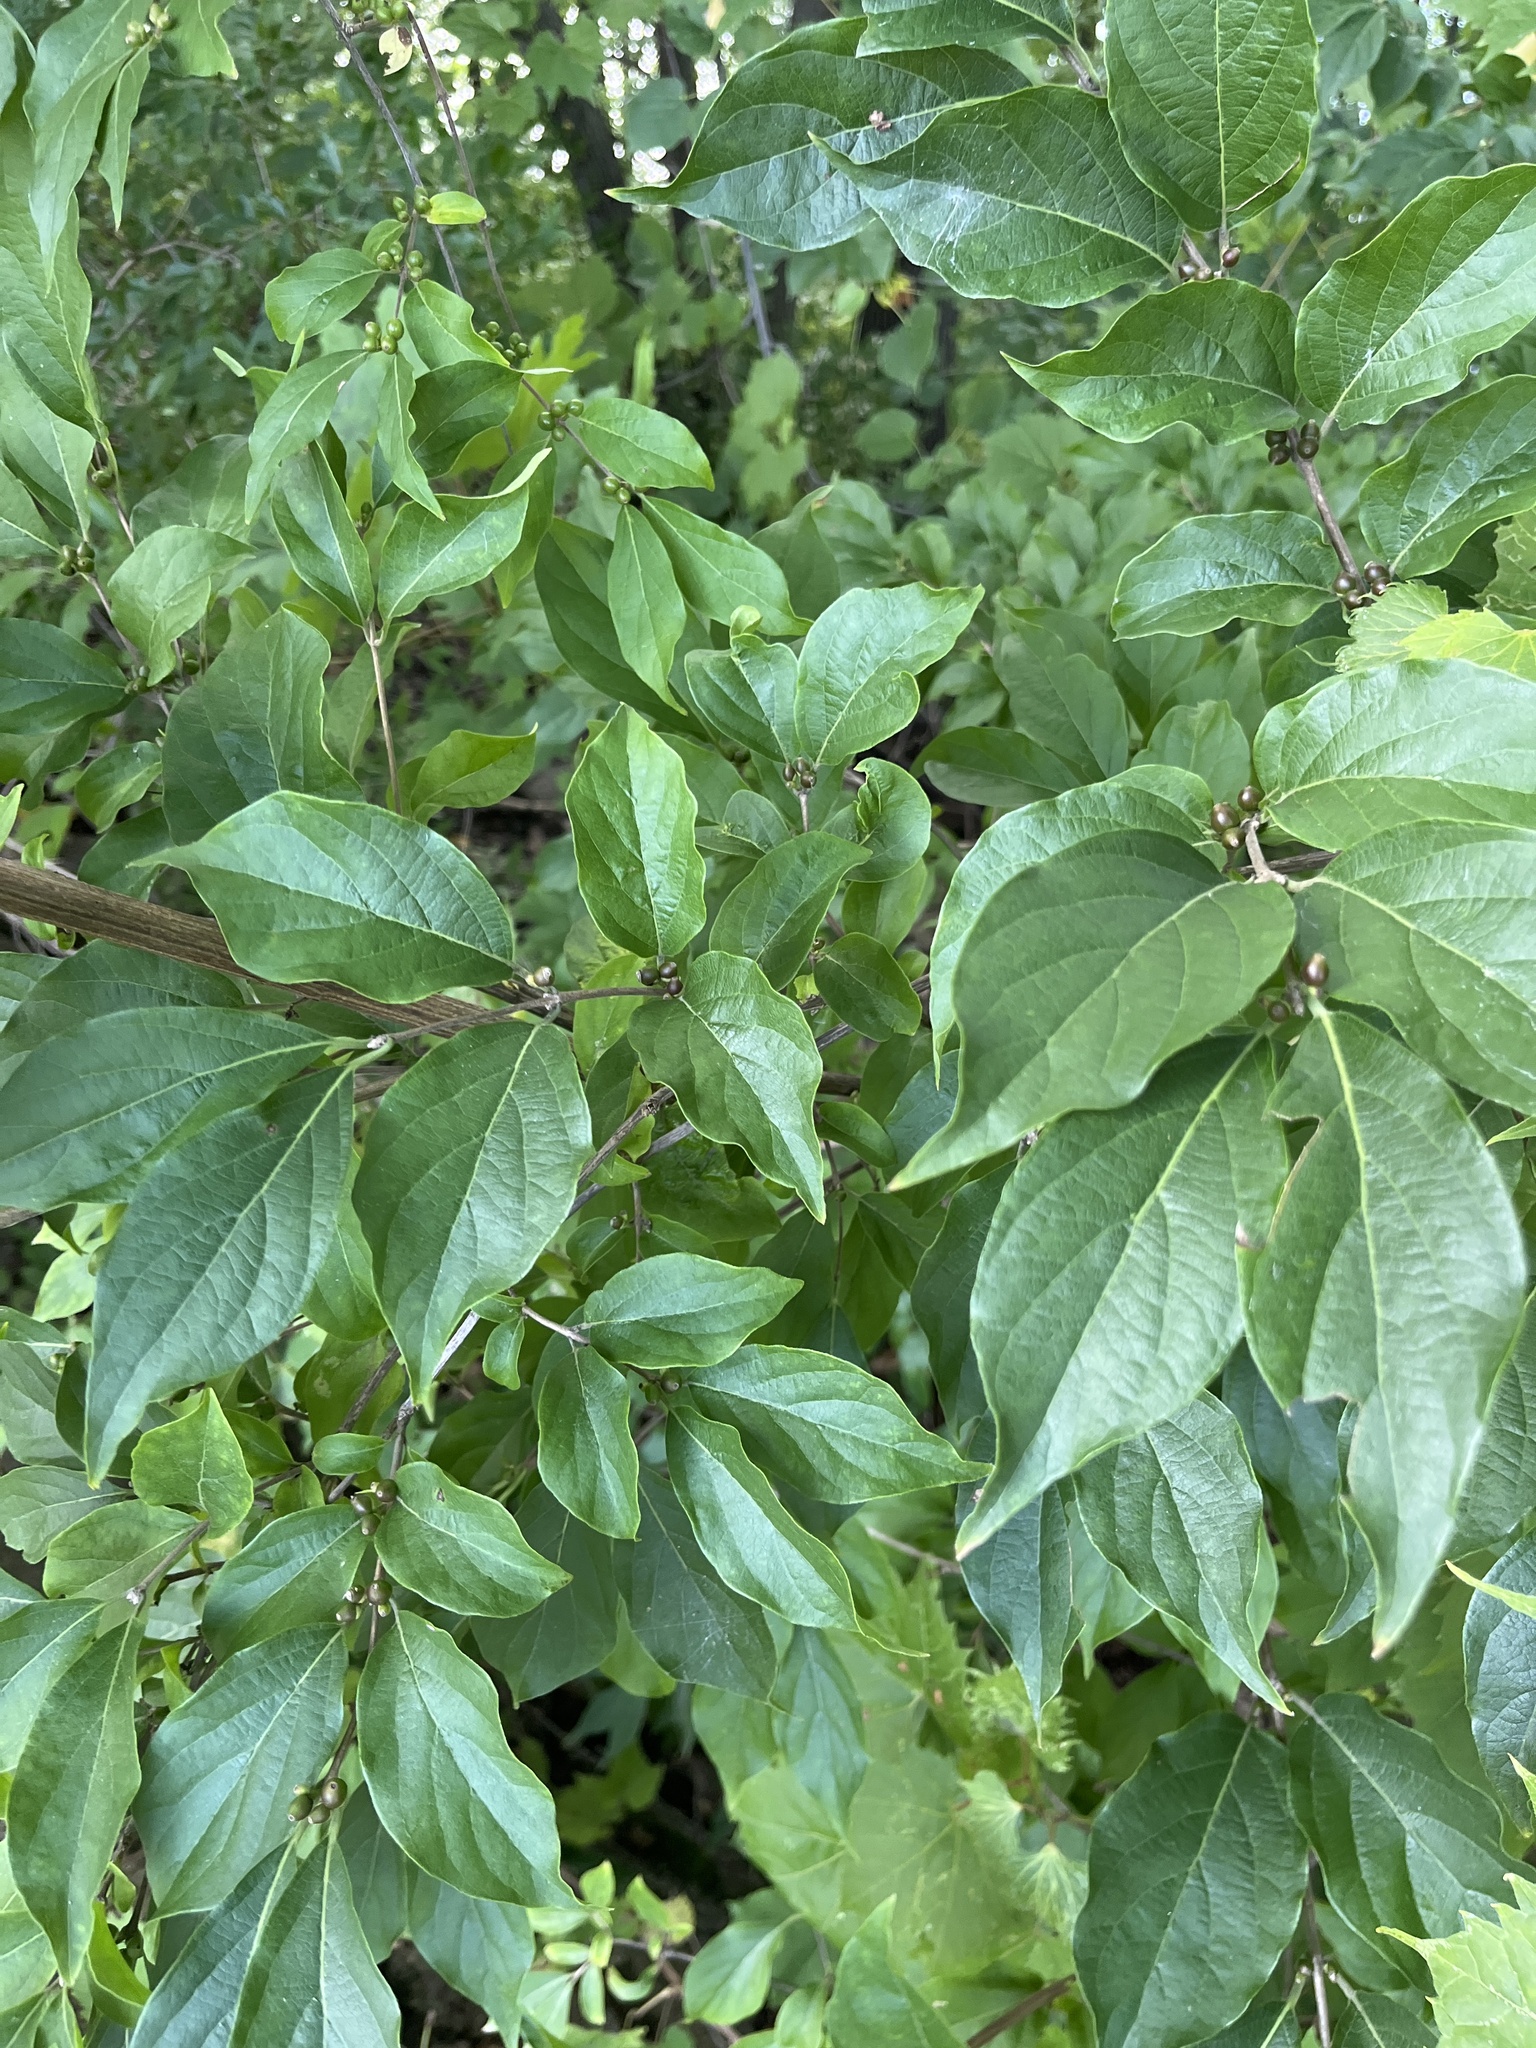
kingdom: Plantae
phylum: Tracheophyta
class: Magnoliopsida
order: Dipsacales
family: Caprifoliaceae
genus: Lonicera
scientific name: Lonicera maackii
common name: Amur honeysuckle
